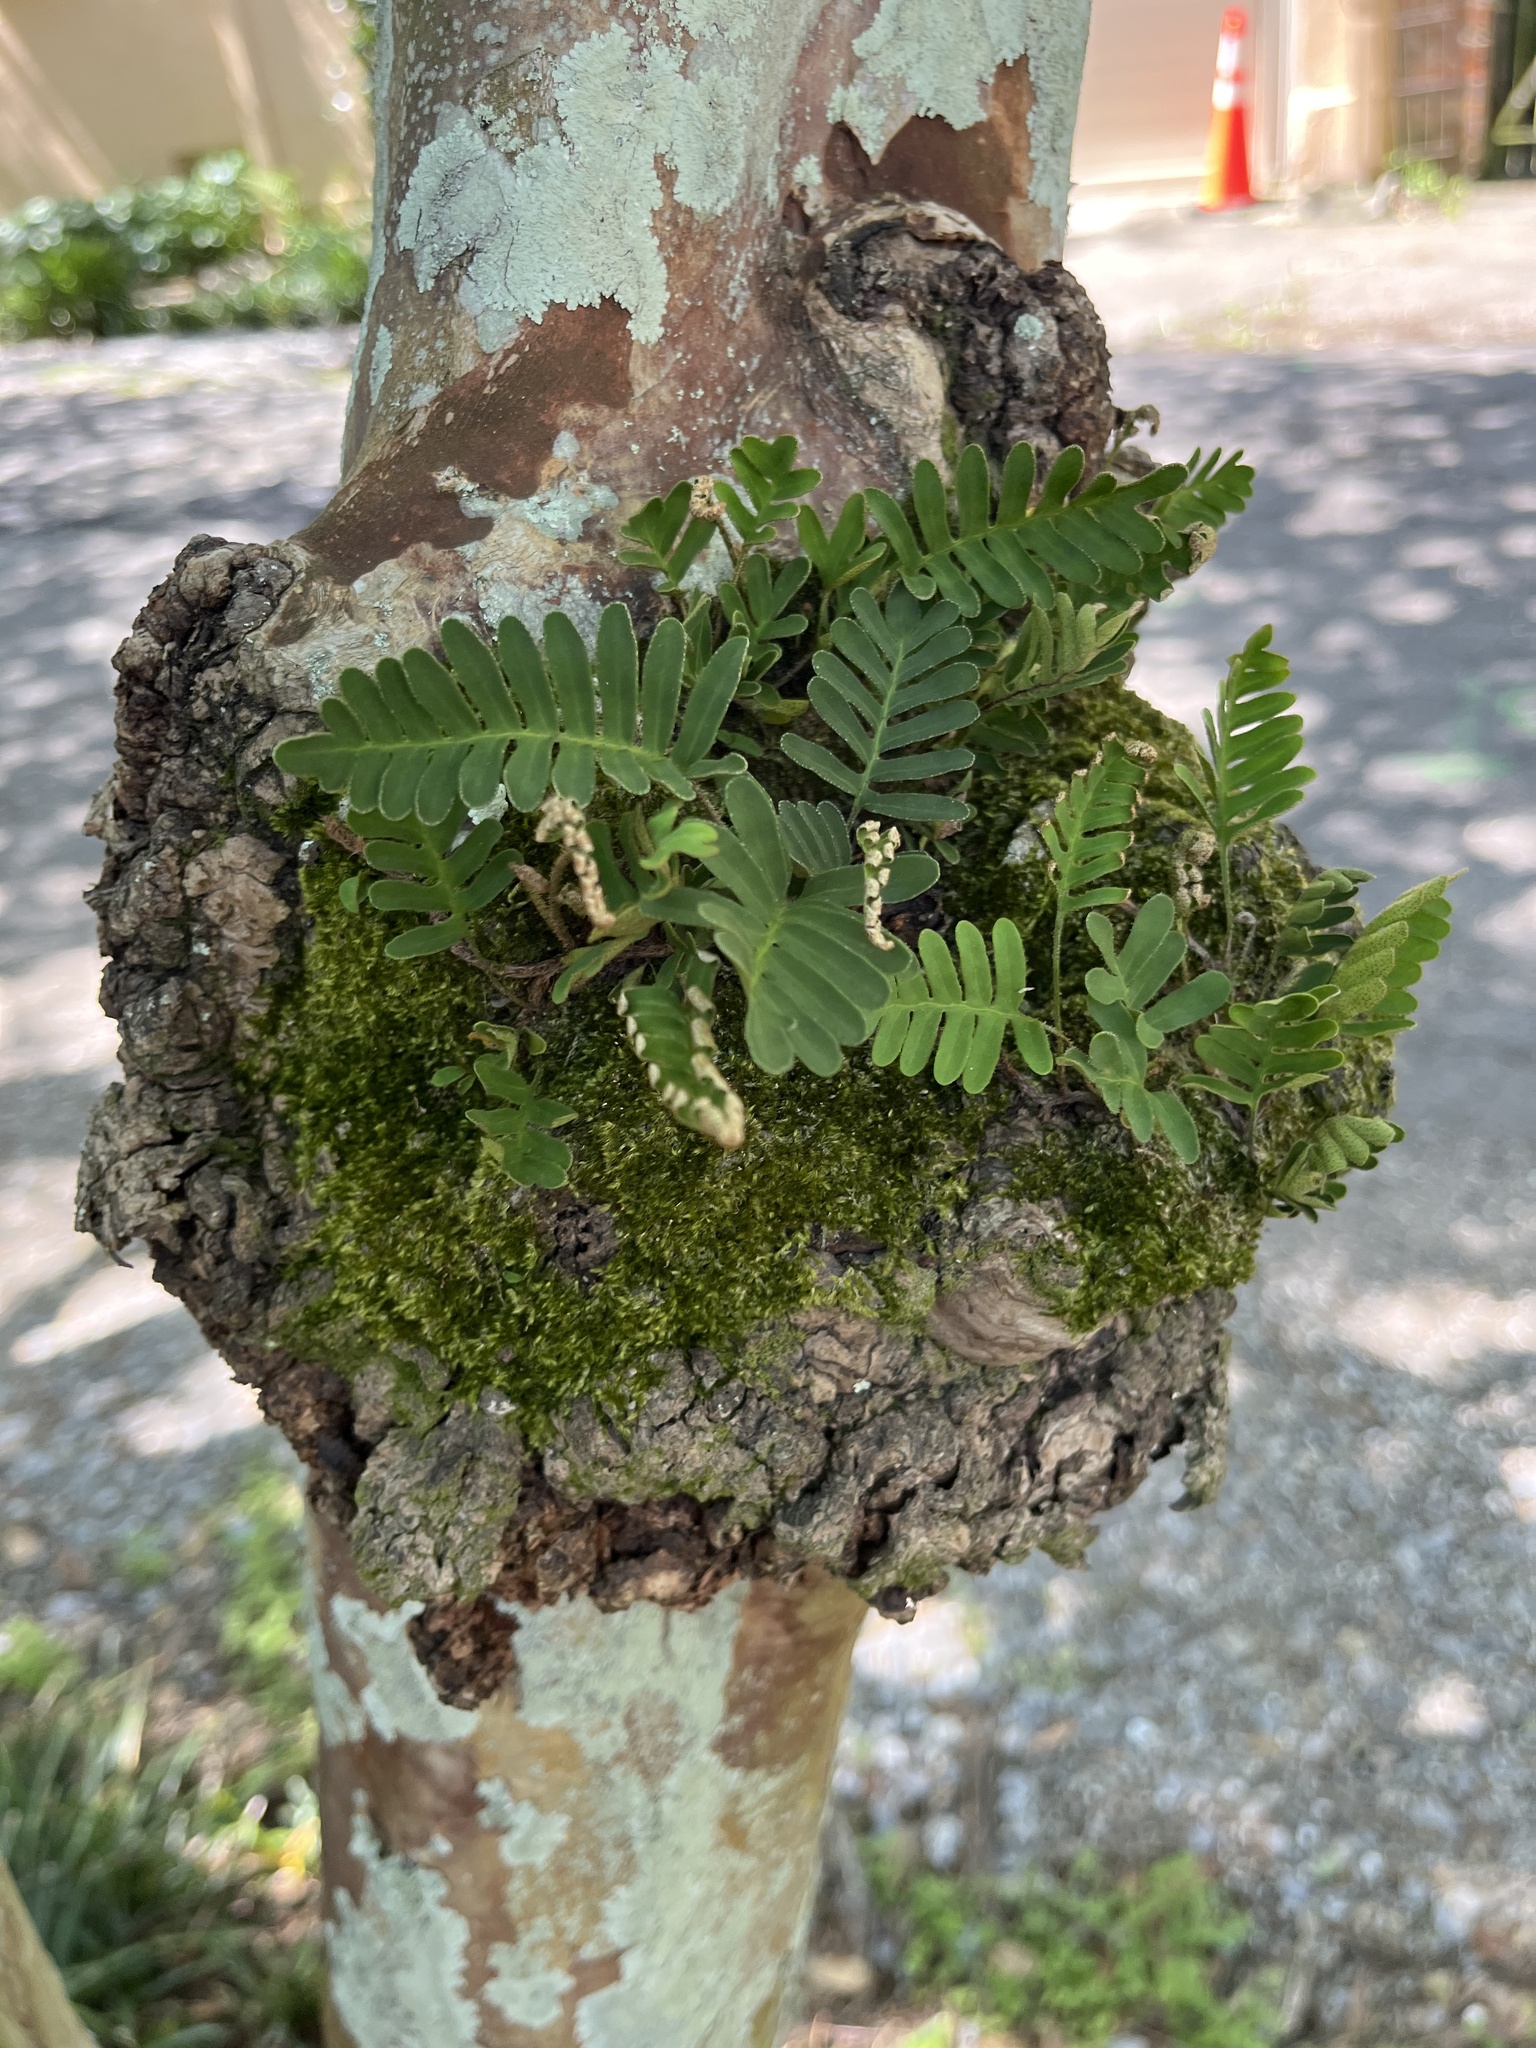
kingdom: Plantae
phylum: Tracheophyta
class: Polypodiopsida
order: Polypodiales
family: Polypodiaceae
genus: Pleopeltis
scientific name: Pleopeltis michauxiana
